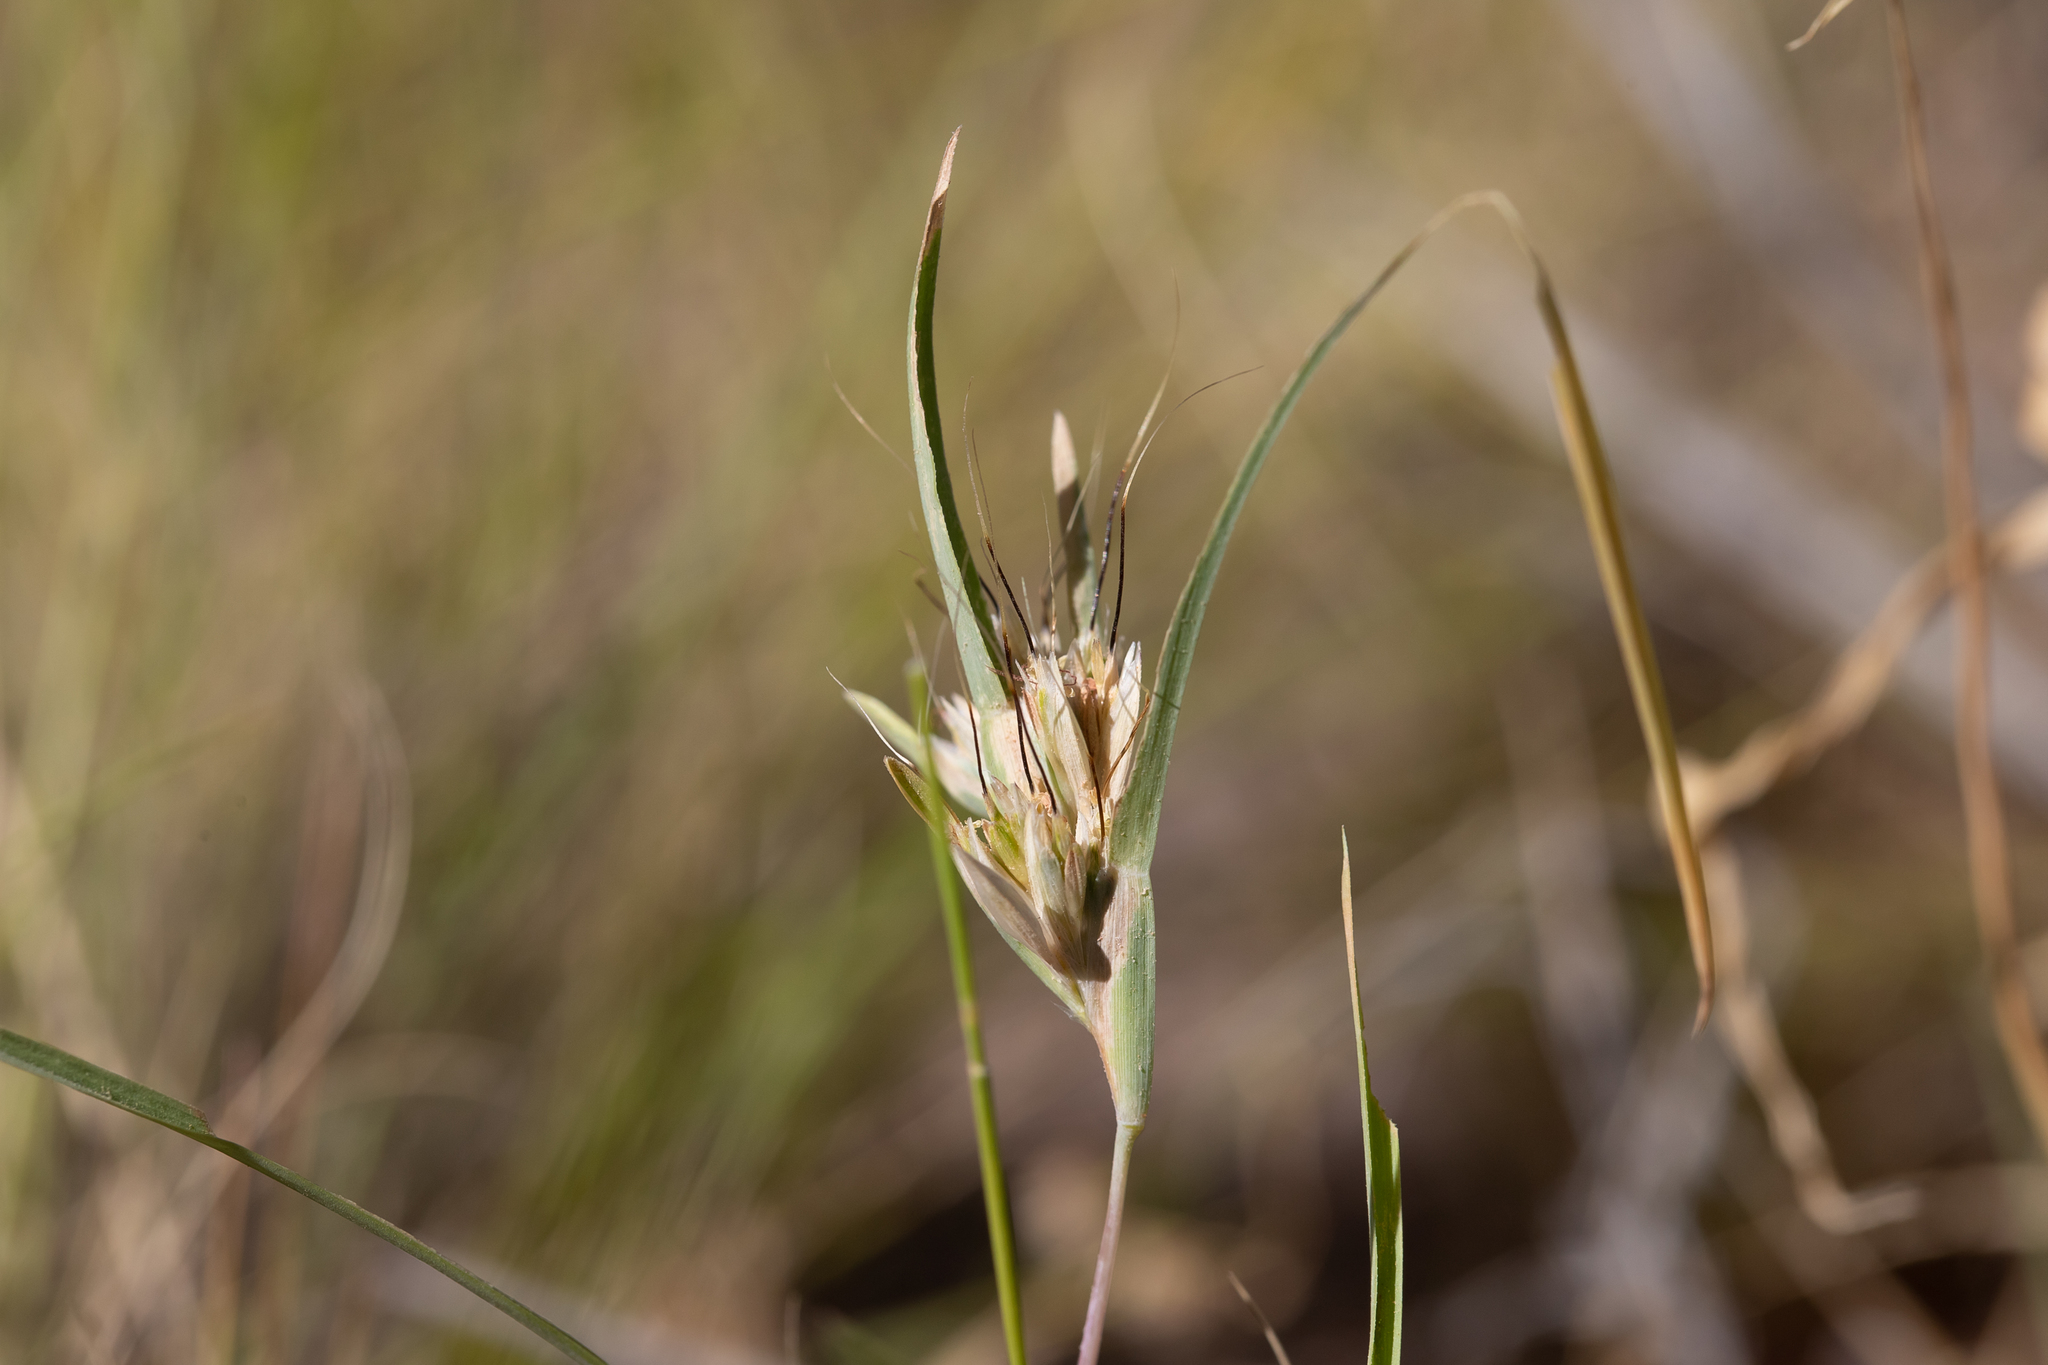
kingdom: Plantae
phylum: Tracheophyta
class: Liliopsida
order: Poales
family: Poaceae
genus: Iseilema
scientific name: Iseilema membranaceum
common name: Small flinders grass
